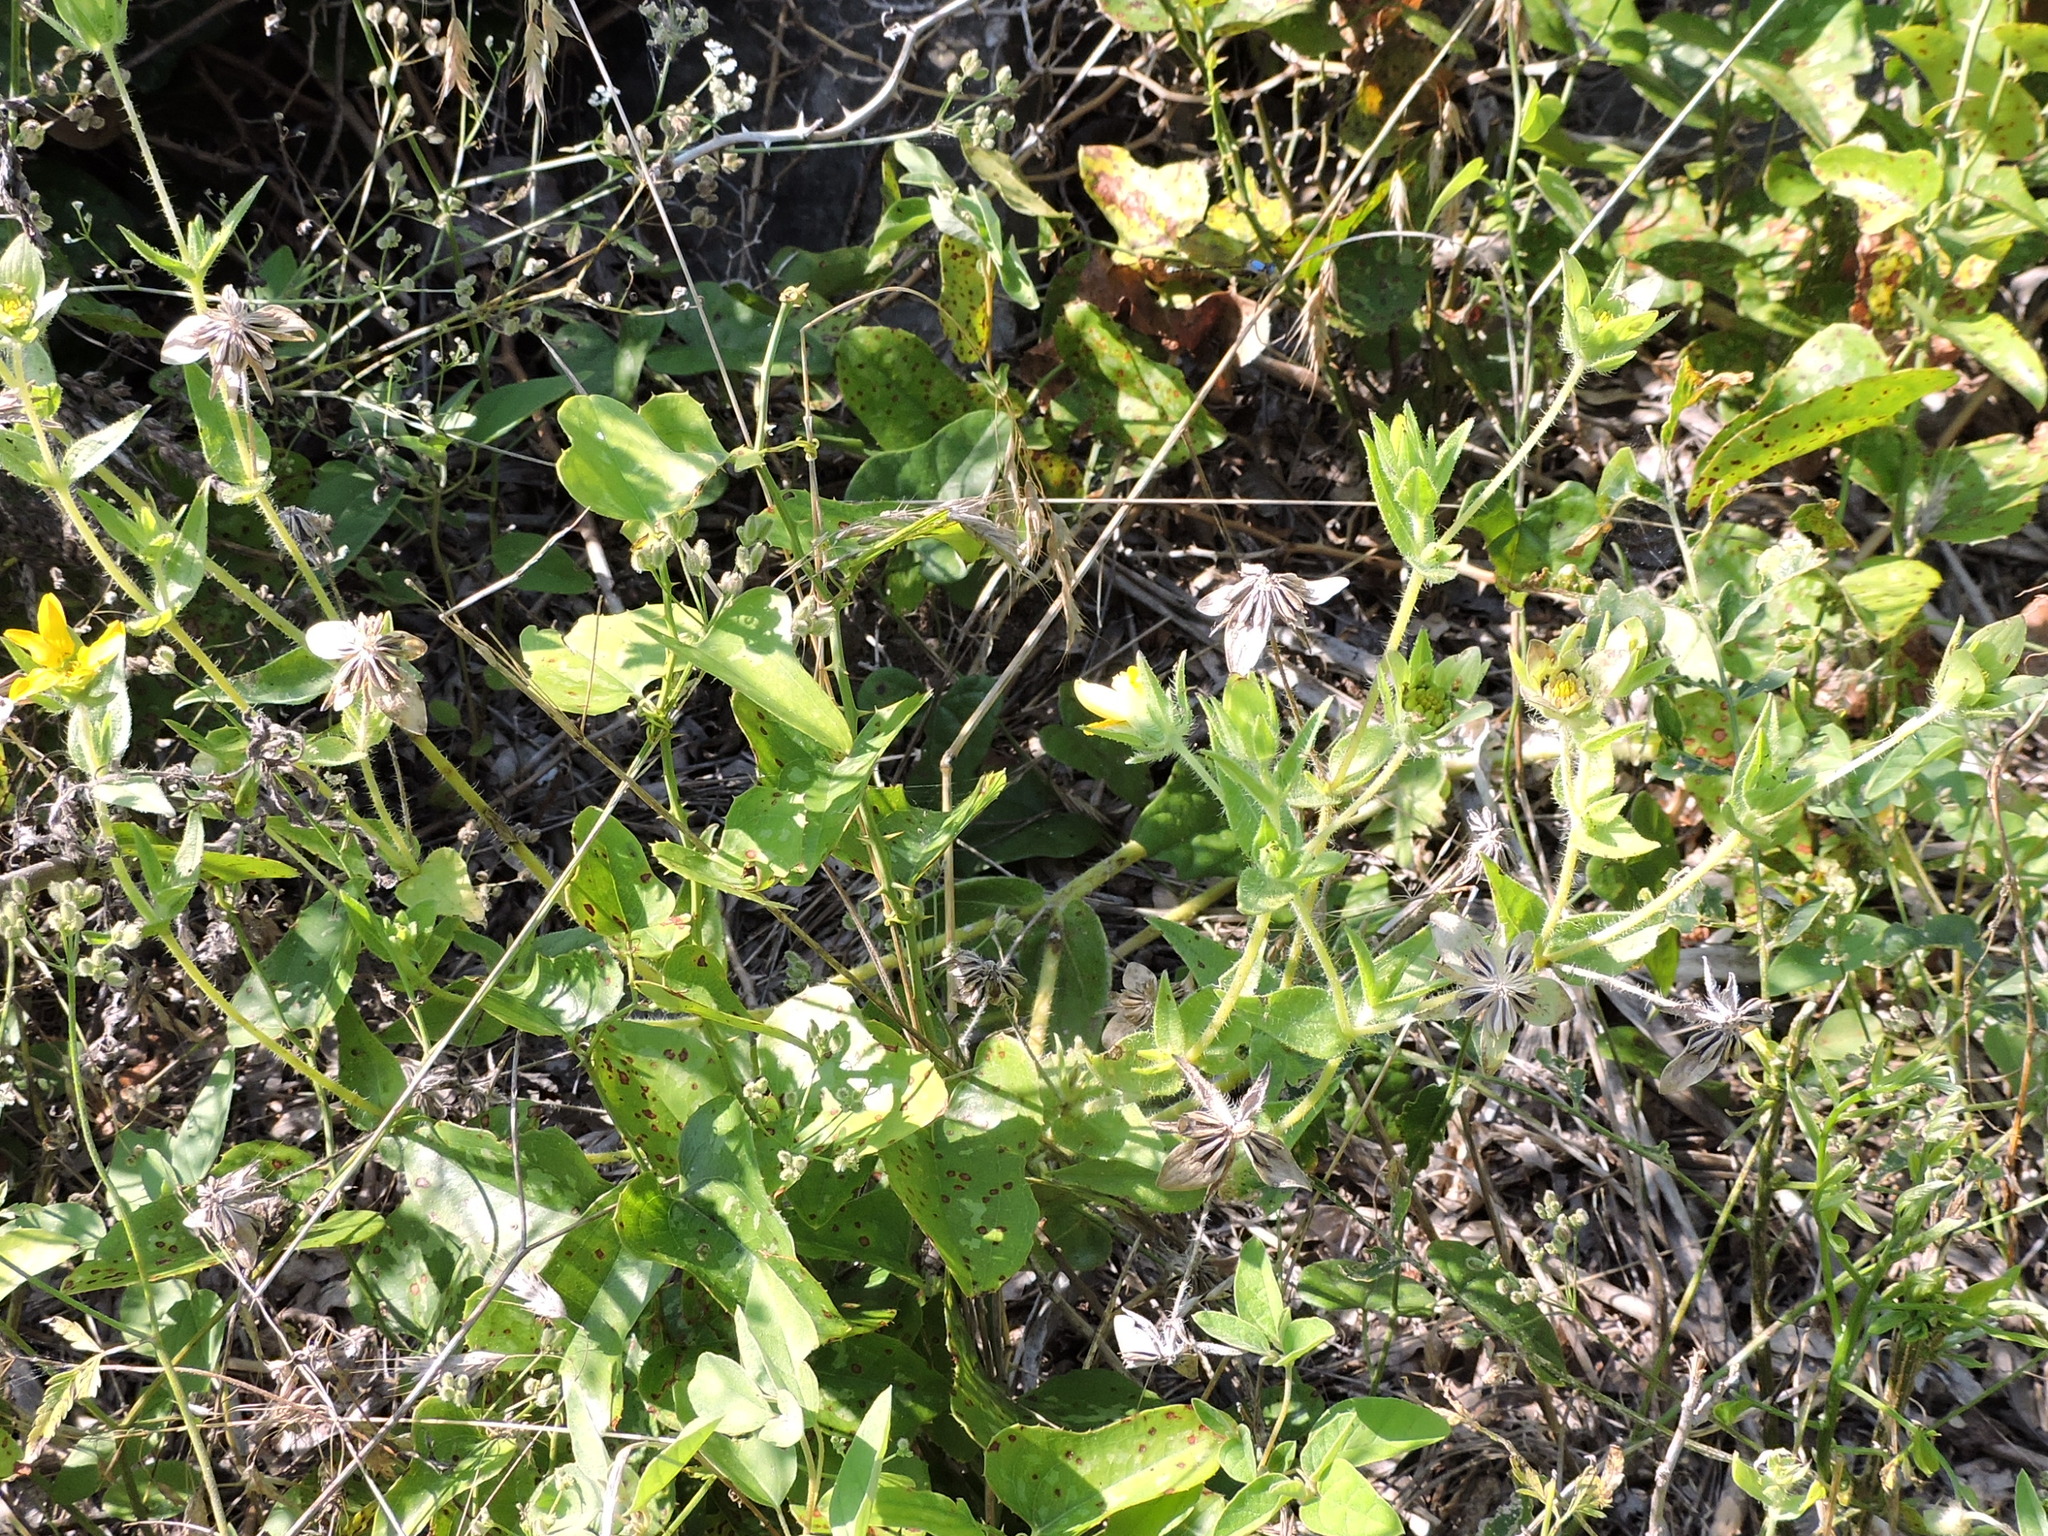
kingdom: Plantae
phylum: Tracheophyta
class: Magnoliopsida
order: Asterales
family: Asteraceae
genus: Lindheimera
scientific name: Lindheimera texana
